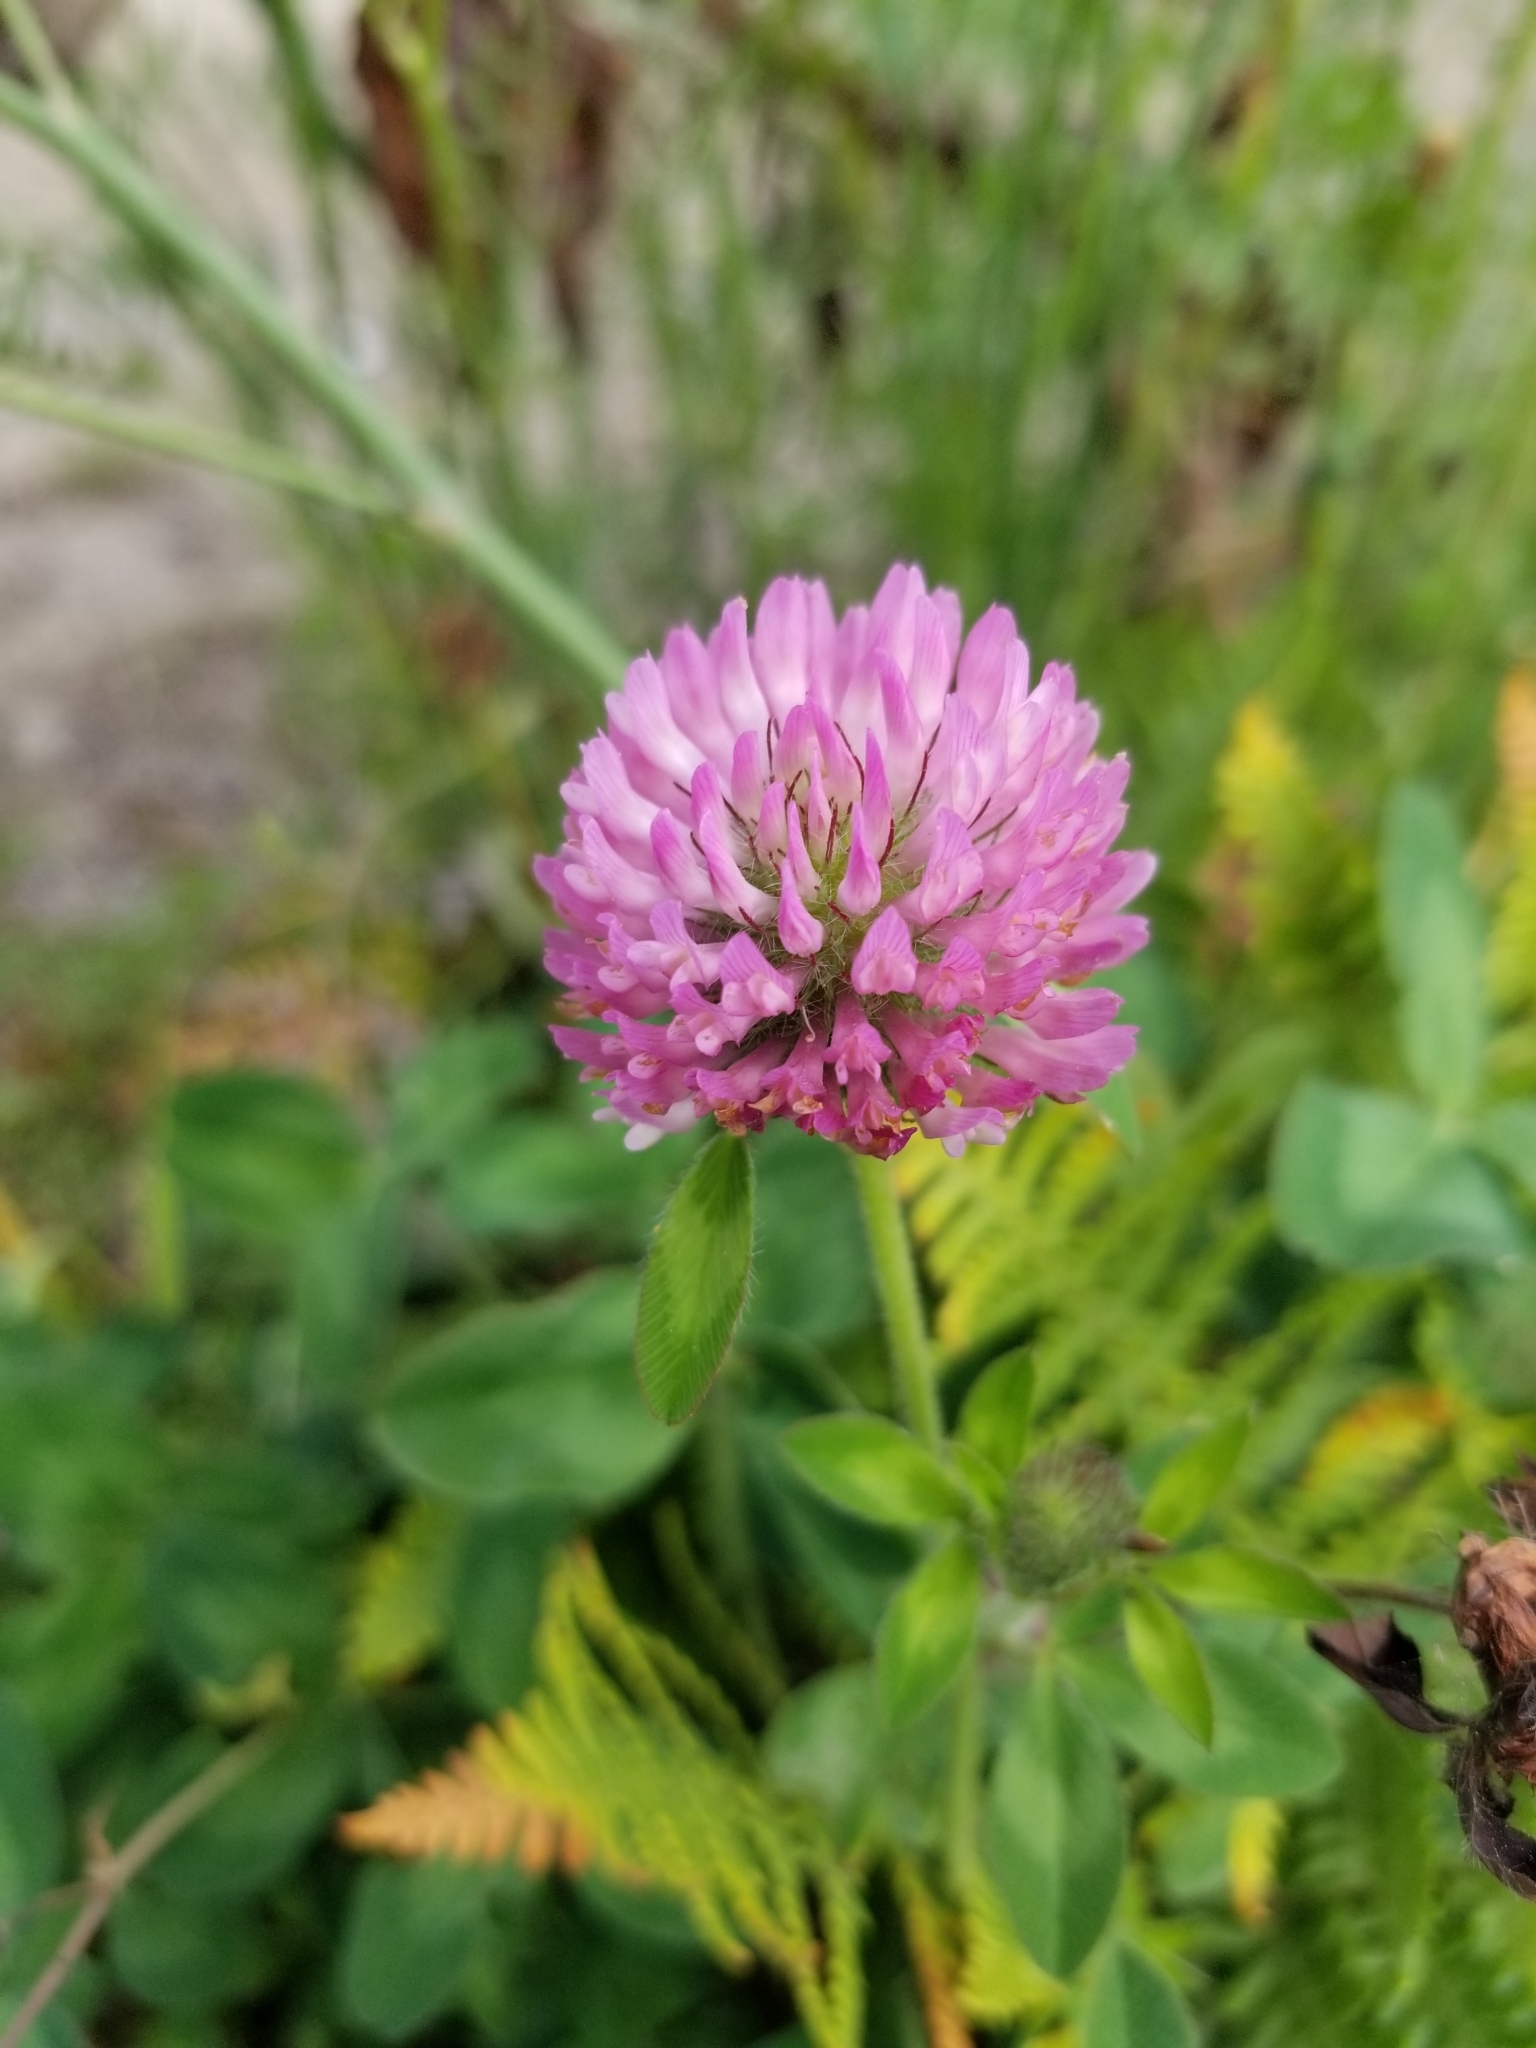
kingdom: Plantae
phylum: Tracheophyta
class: Magnoliopsida
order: Fabales
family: Fabaceae
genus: Trifolium
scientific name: Trifolium pratense
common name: Red clover
